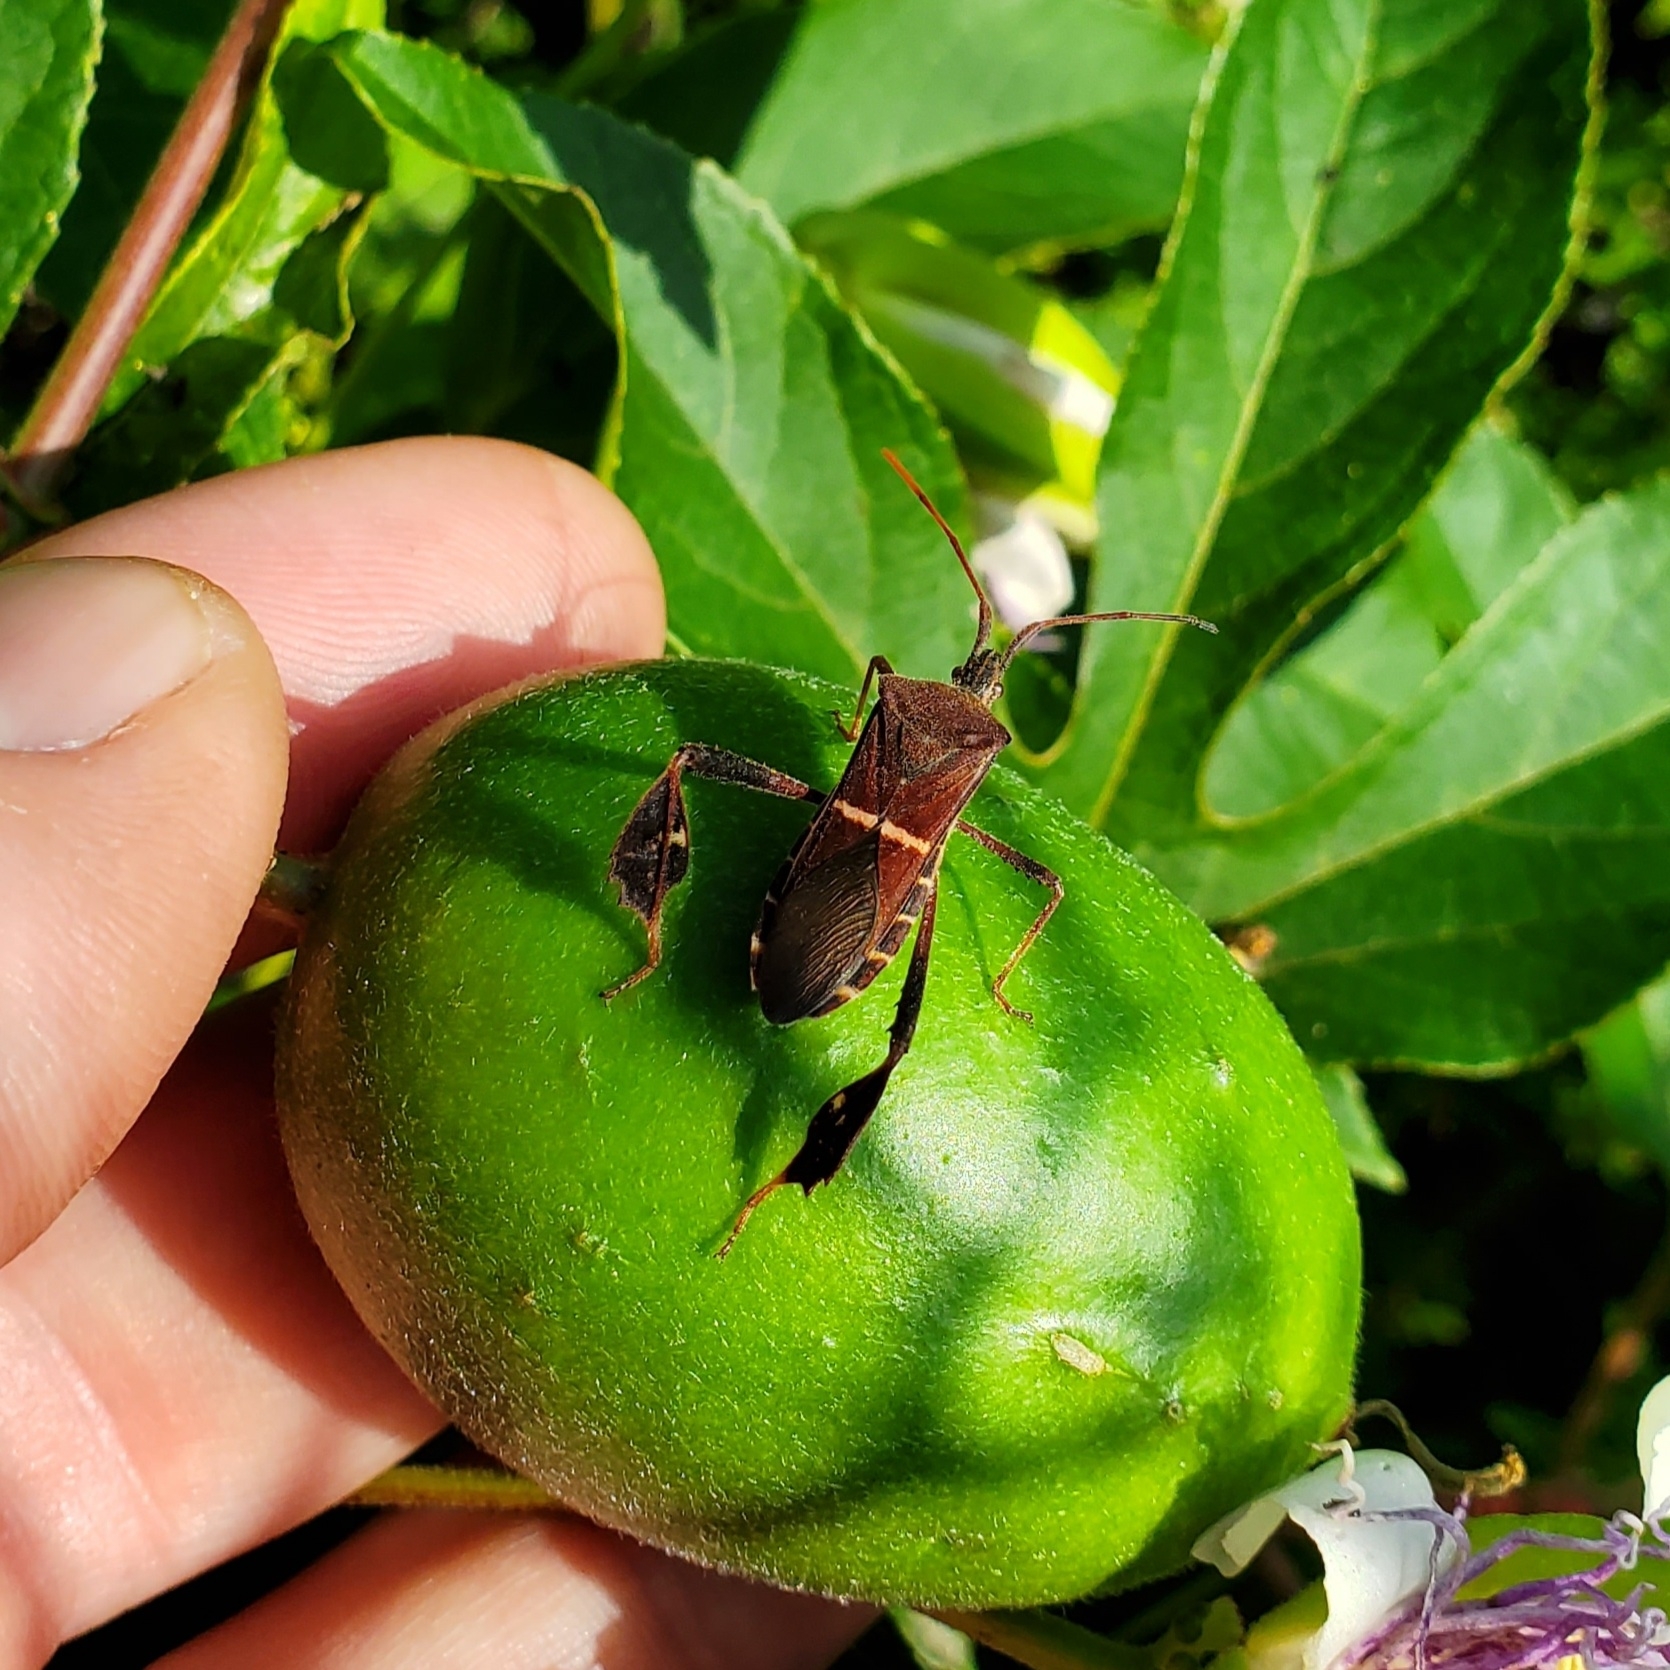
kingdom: Animalia
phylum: Arthropoda
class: Insecta
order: Hemiptera
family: Coreidae
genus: Leptoglossus
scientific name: Leptoglossus phyllopus
